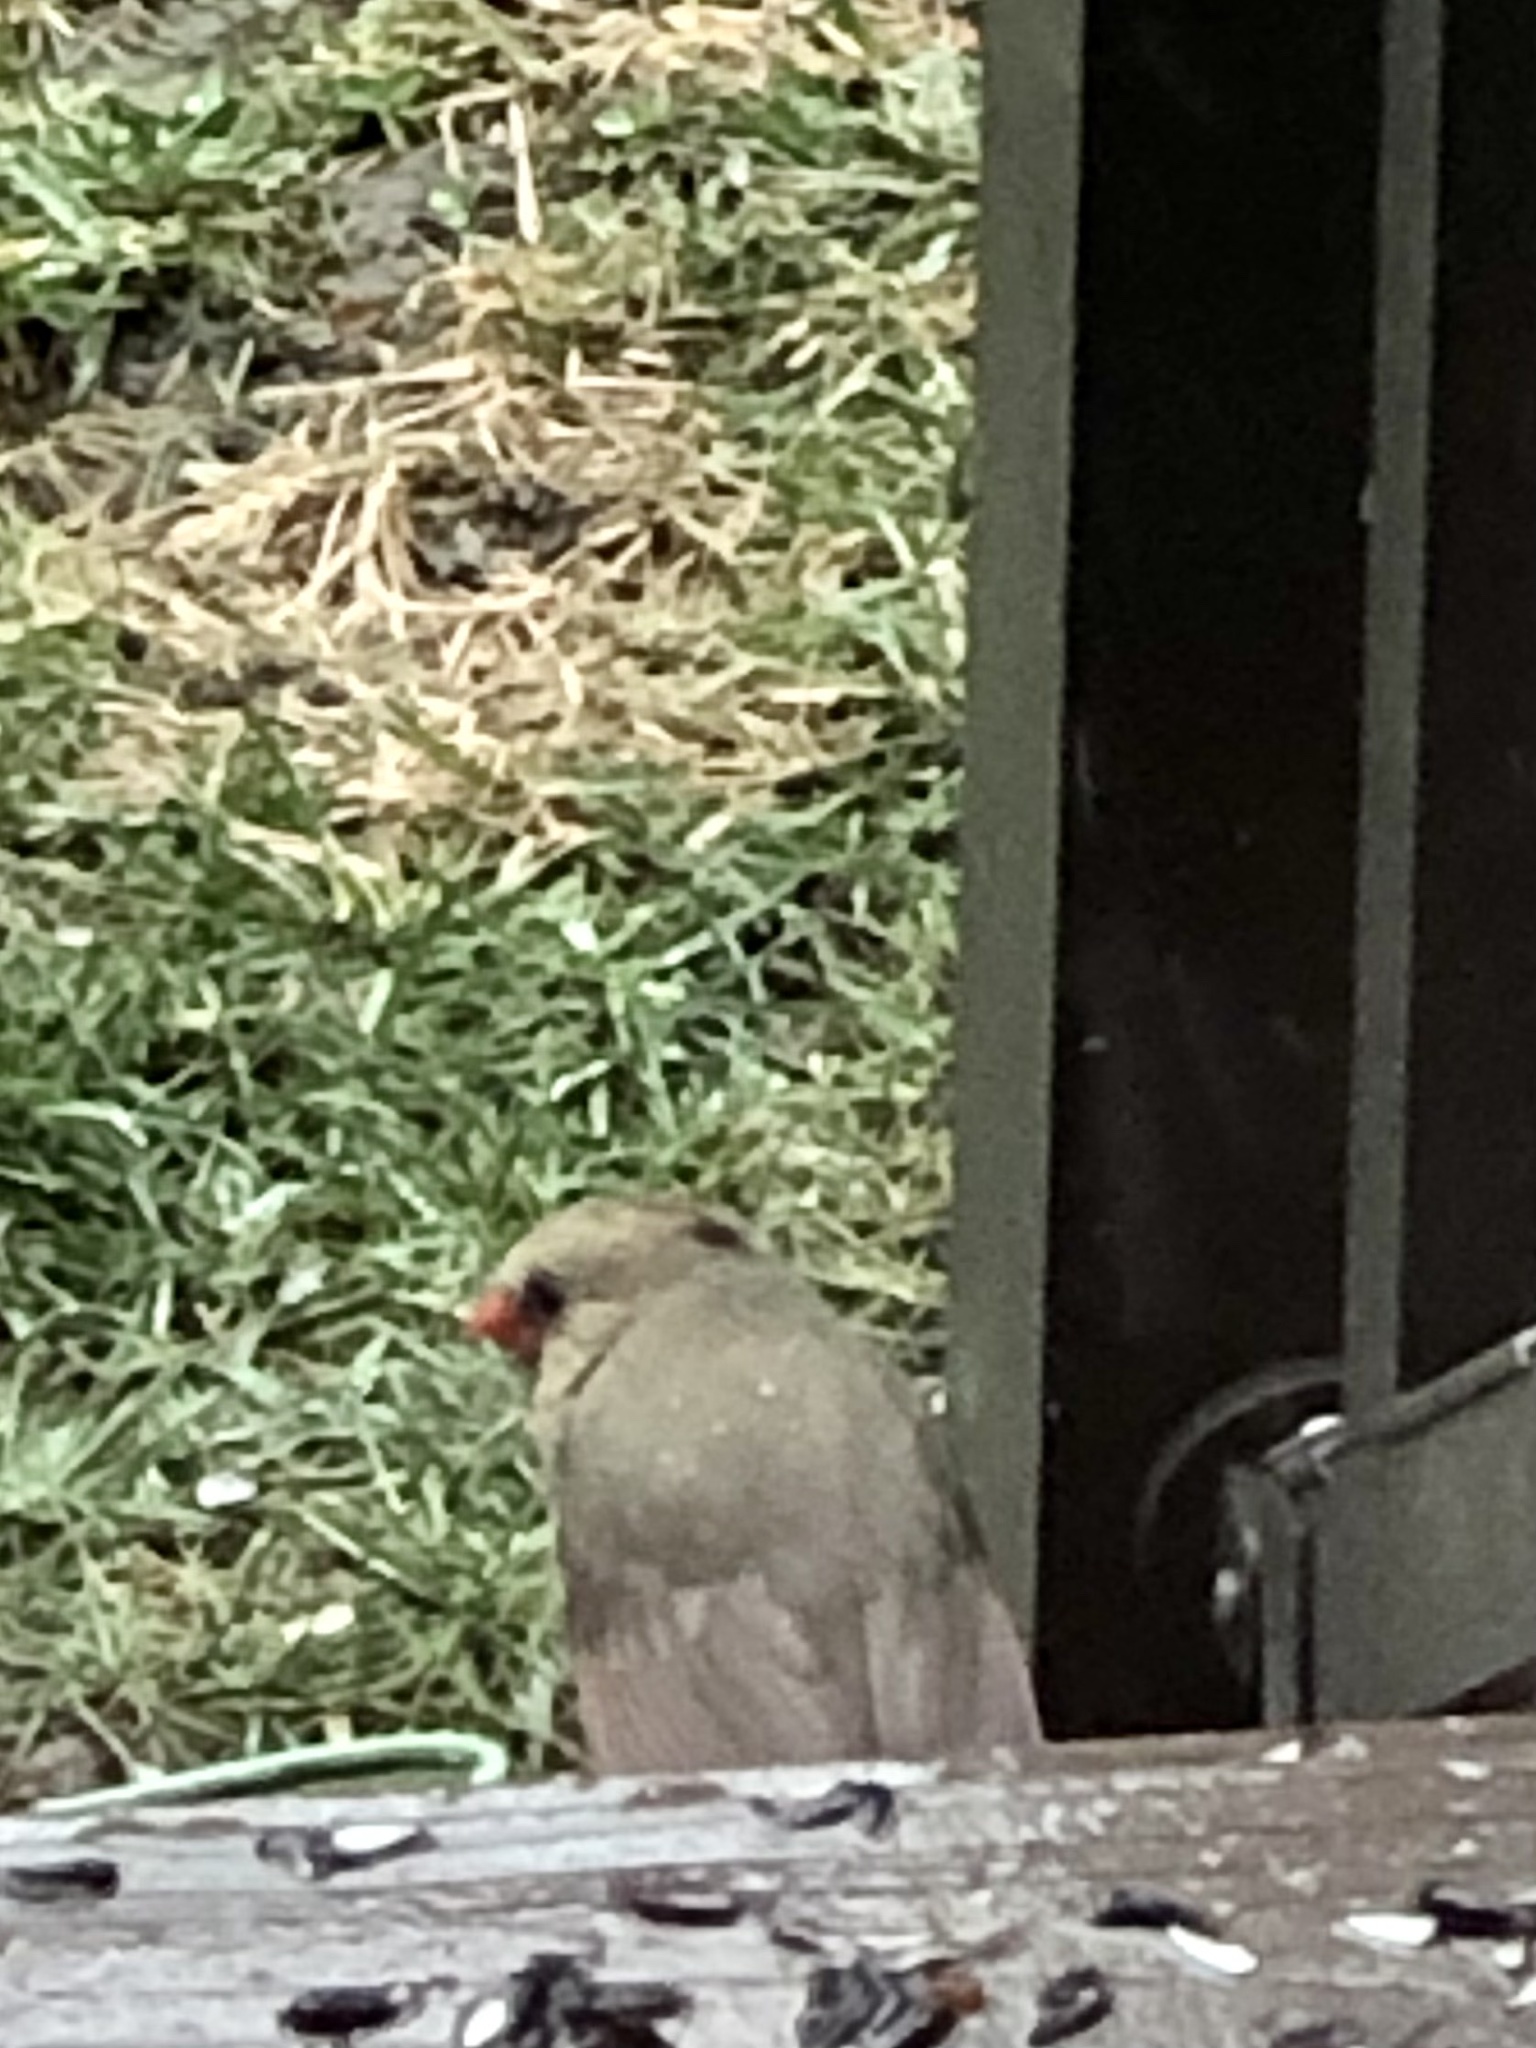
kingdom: Animalia
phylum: Chordata
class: Aves
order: Passeriformes
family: Cardinalidae
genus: Cardinalis
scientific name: Cardinalis cardinalis
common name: Northern cardinal
